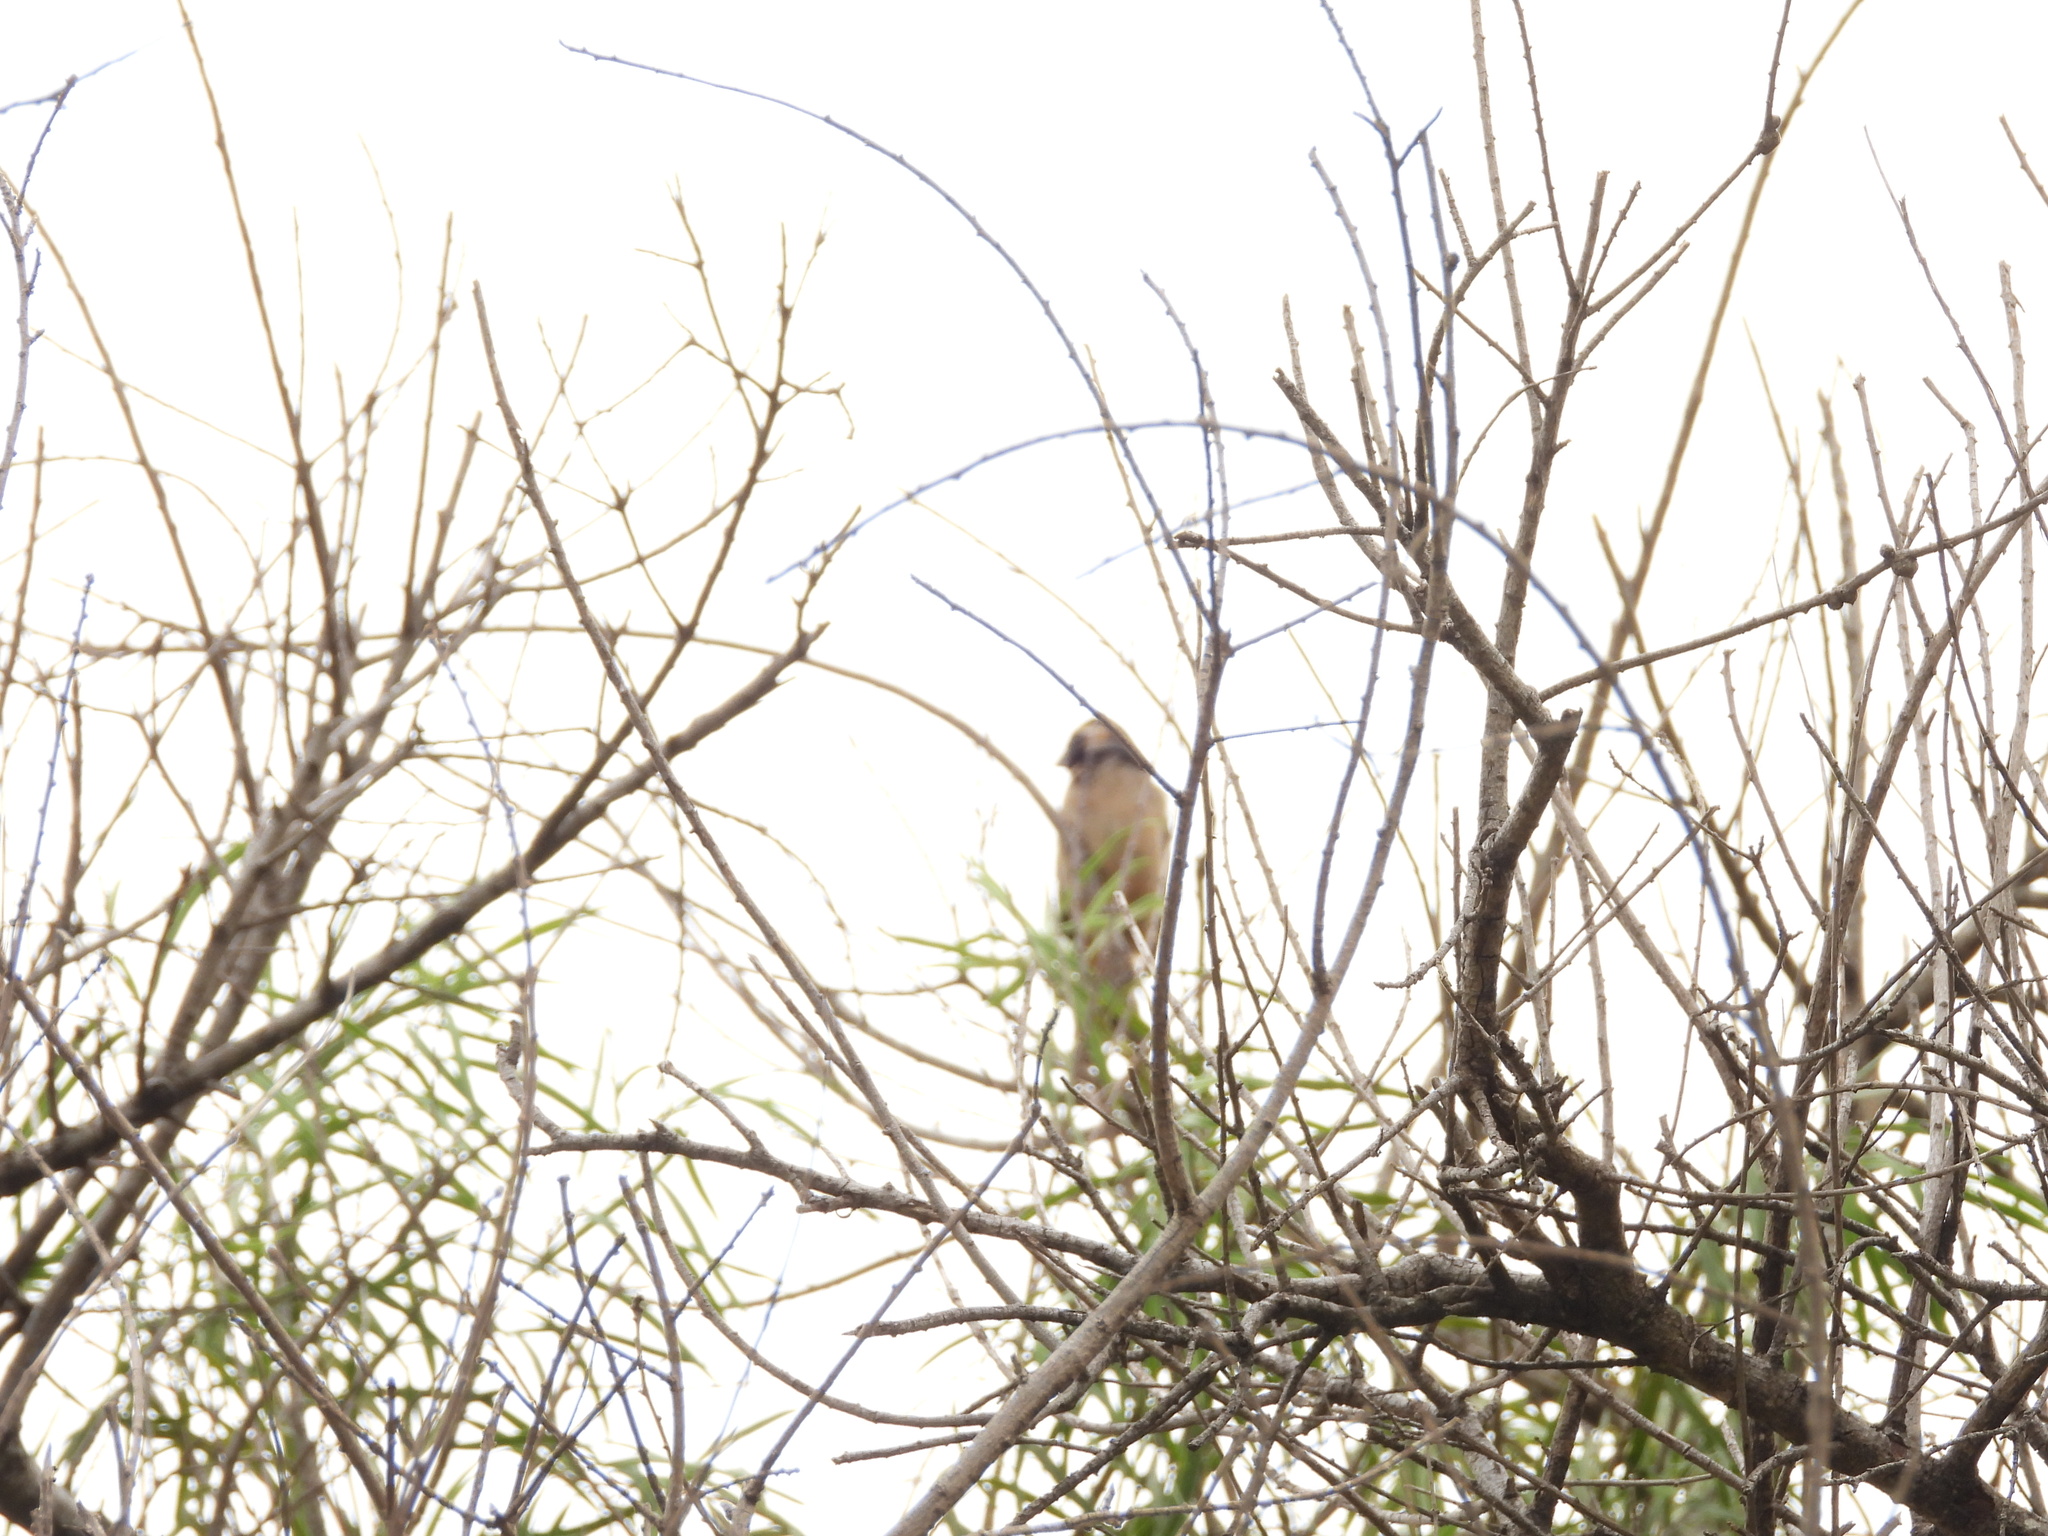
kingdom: Animalia
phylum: Chordata
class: Aves
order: Passeriformes
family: Thraupidae
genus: Saltator
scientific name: Saltator aurantiirostris
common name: Golden-billed saltator
